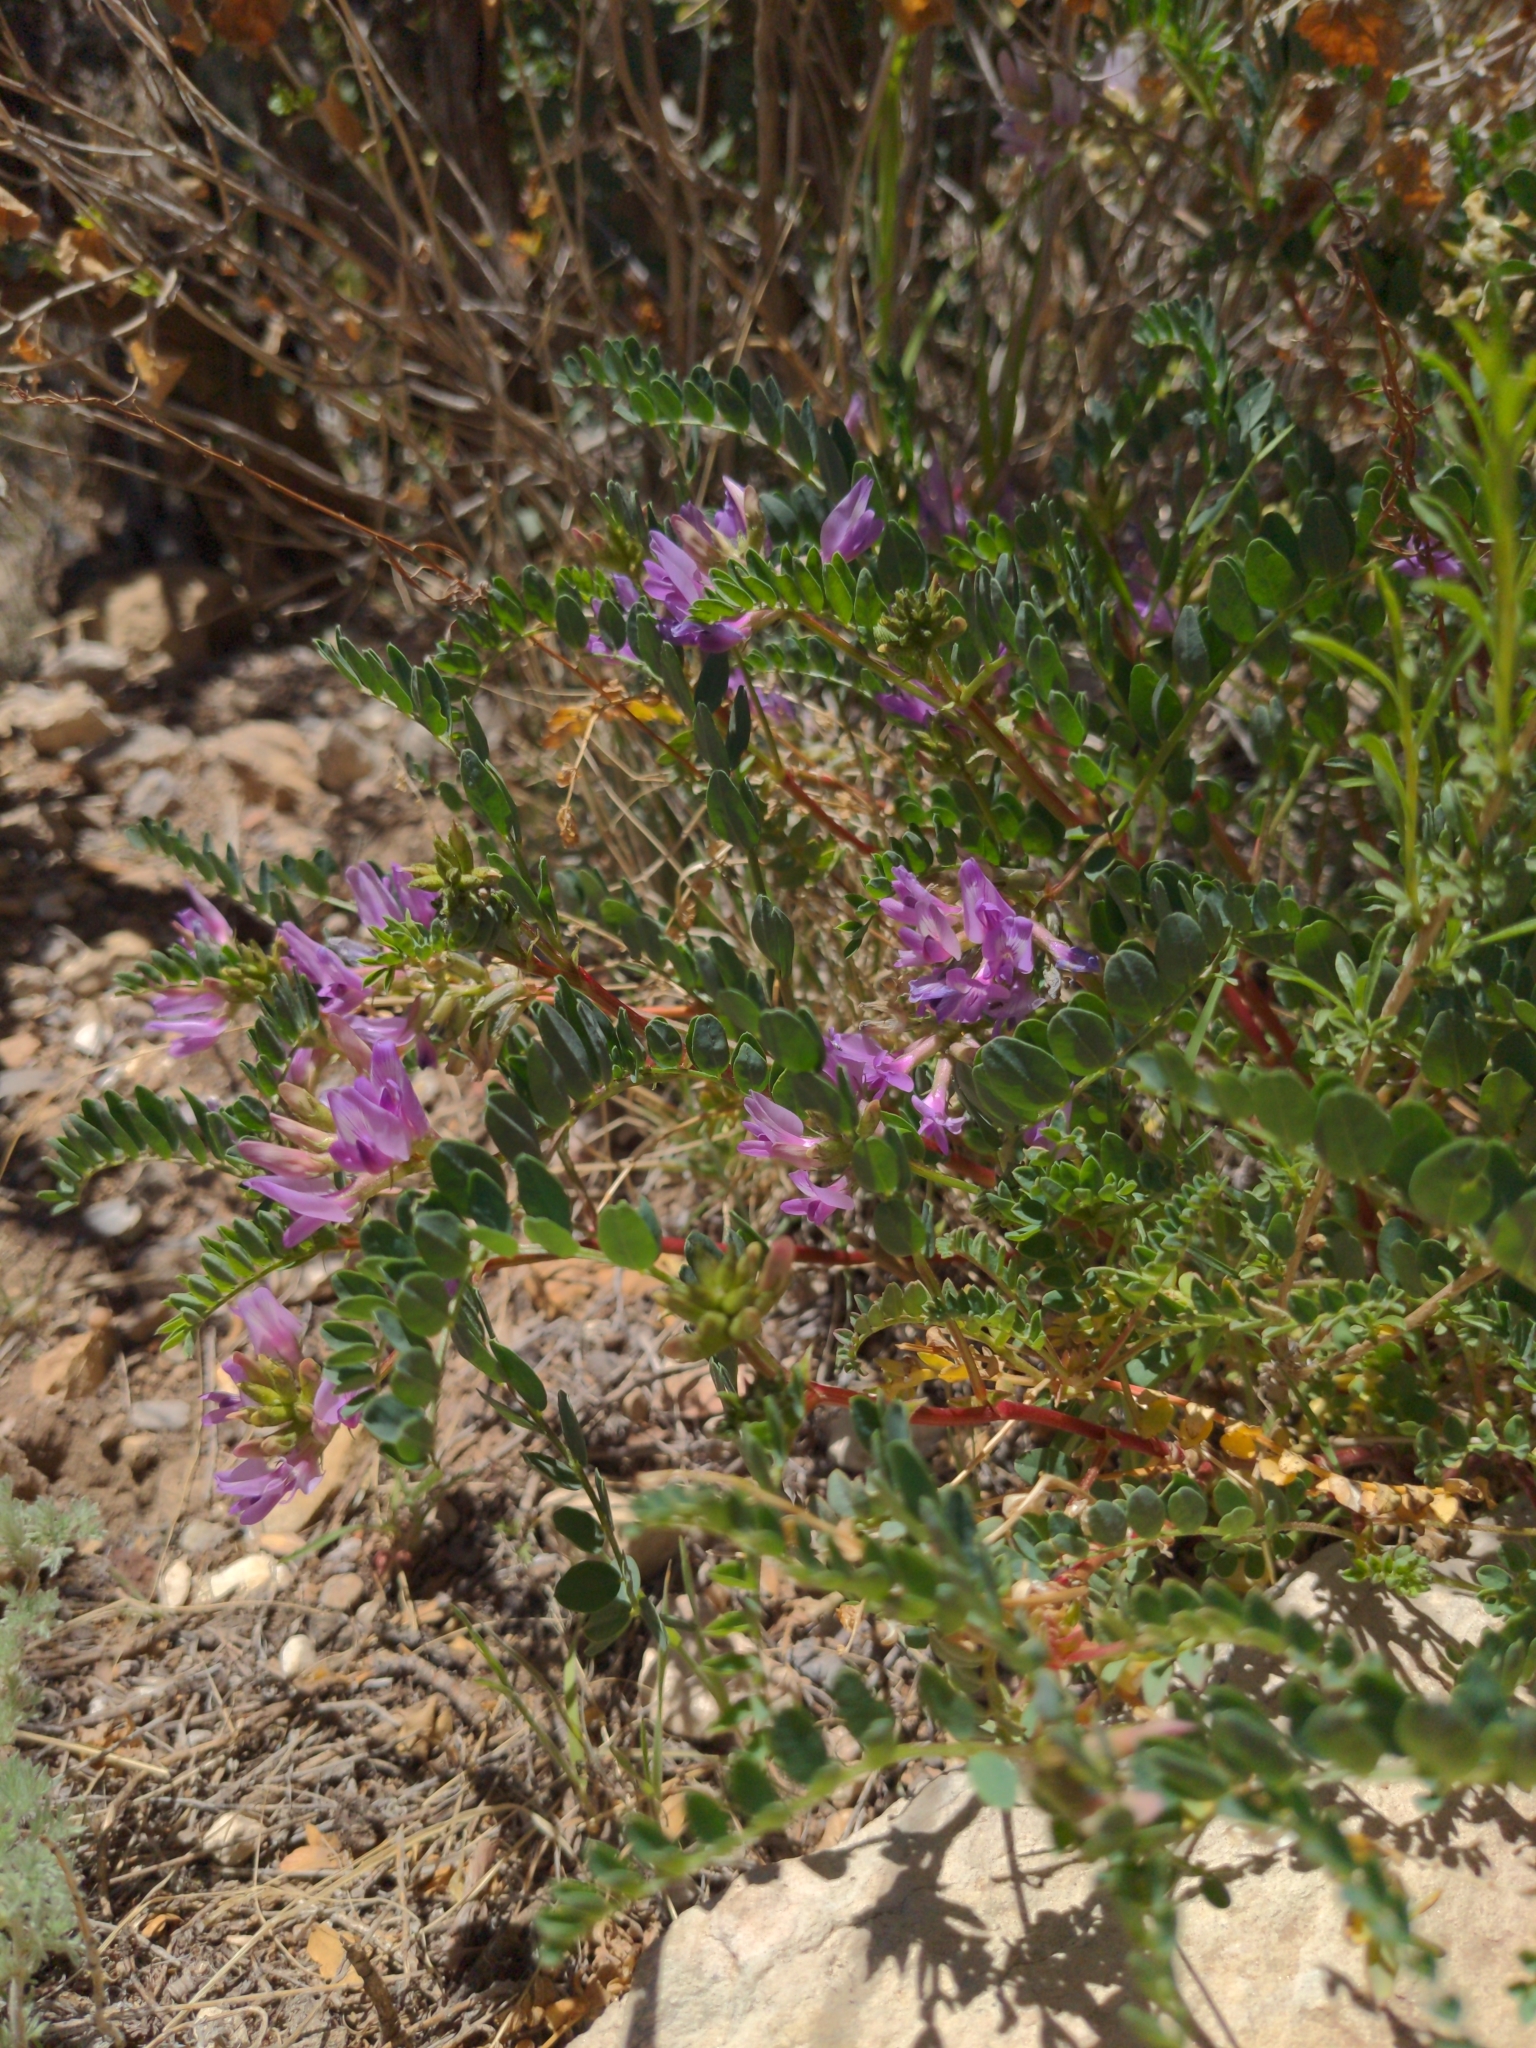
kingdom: Plantae
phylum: Tracheophyta
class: Magnoliopsida
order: Fabales
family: Fabaceae
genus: Astragalus
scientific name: Astragalus lentiginosus
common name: Freckled milkvetch
